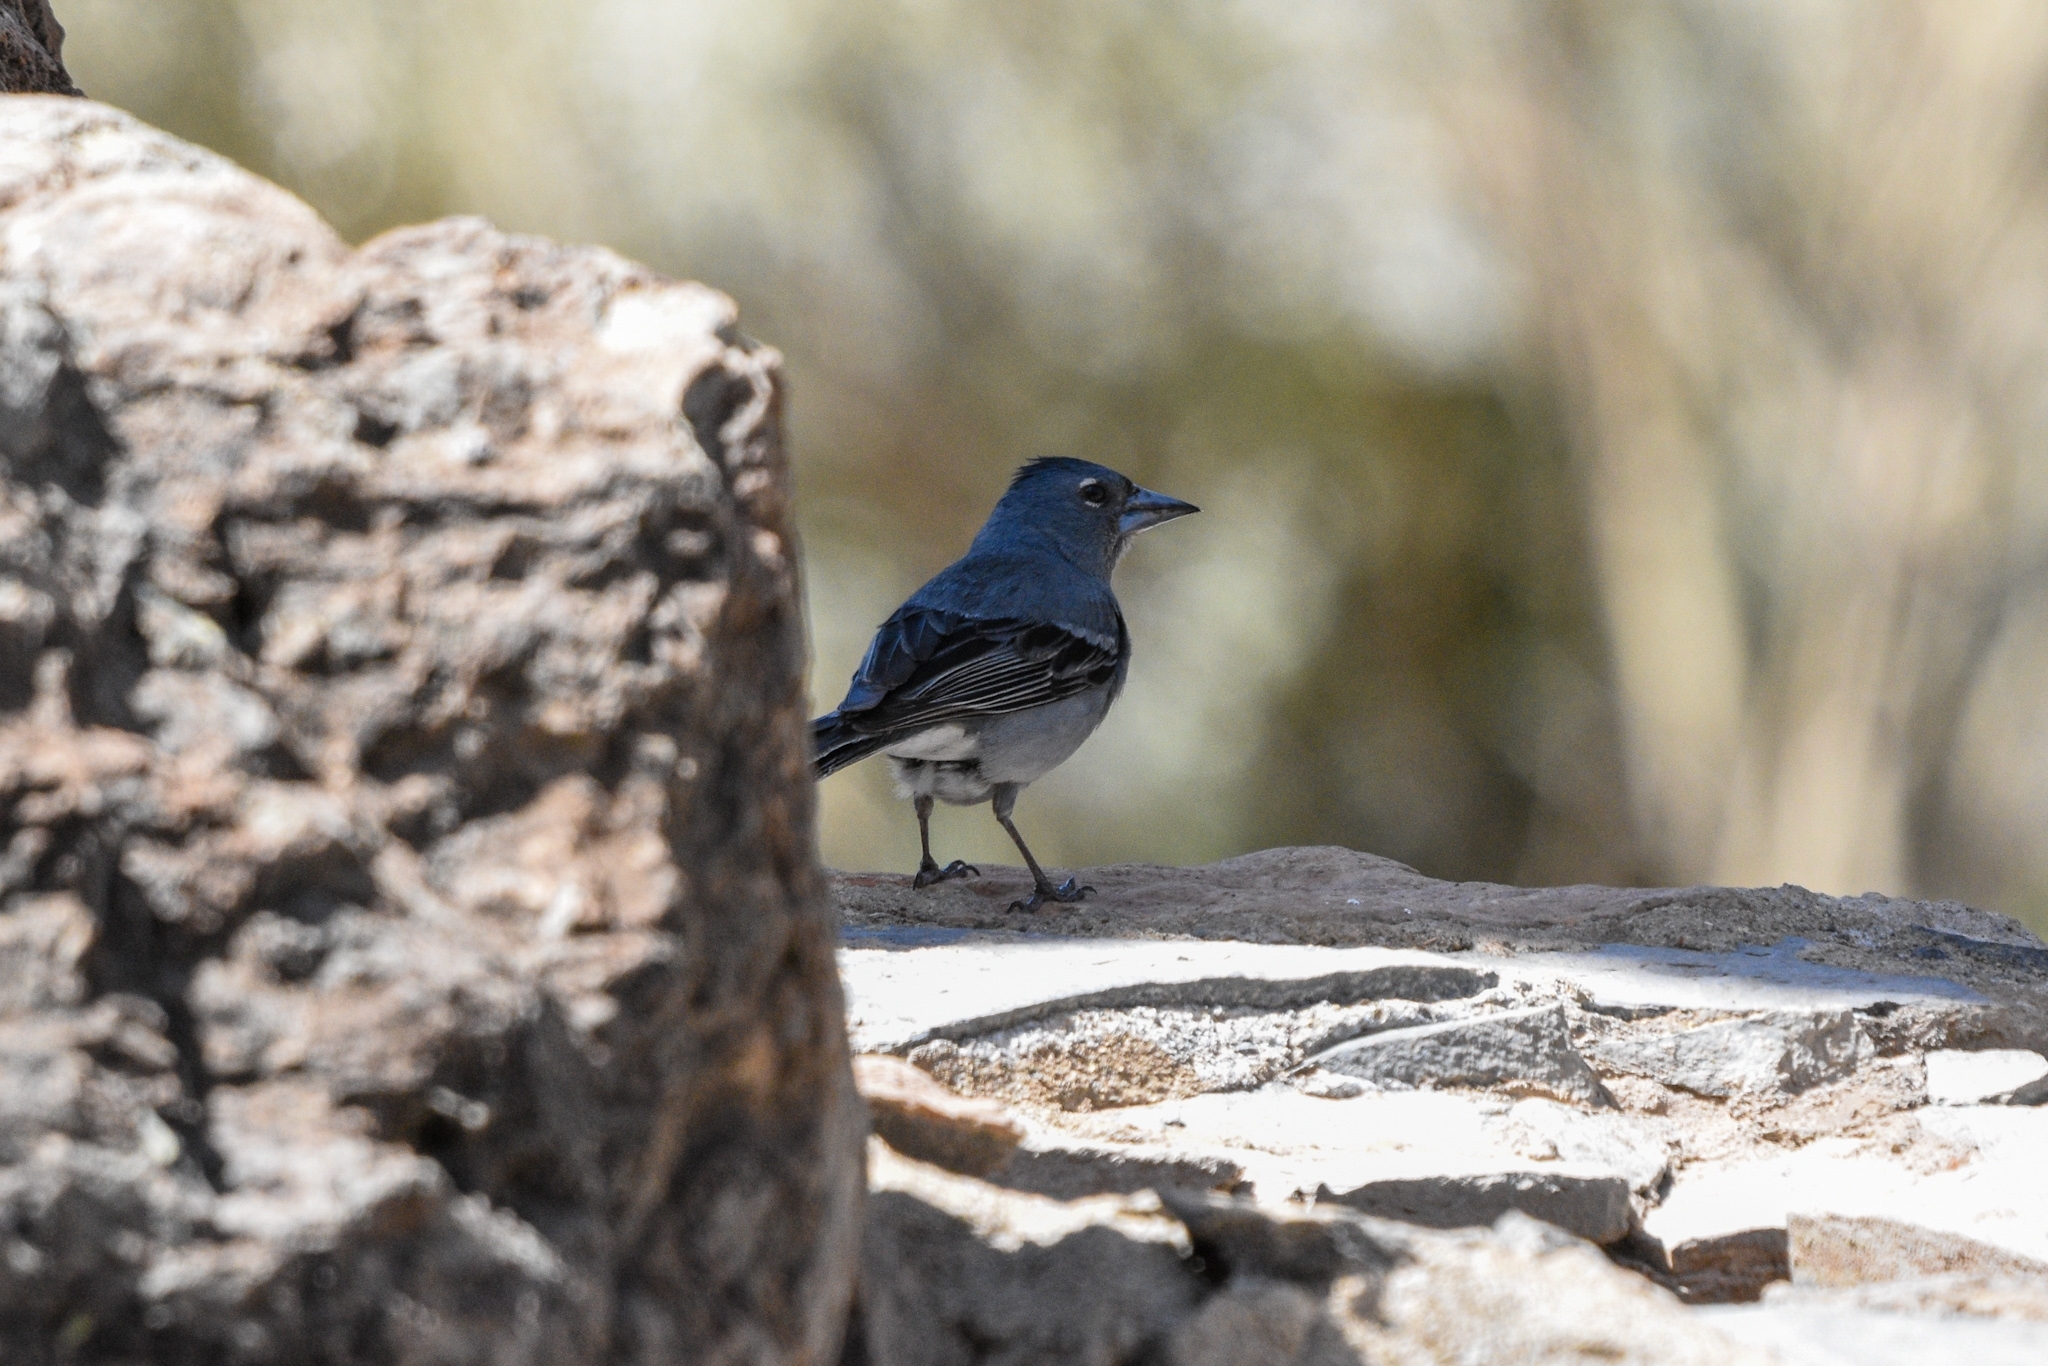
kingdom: Animalia
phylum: Chordata
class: Aves
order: Passeriformes
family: Fringillidae
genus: Fringilla
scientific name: Fringilla teydea
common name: Blue chaffinch
